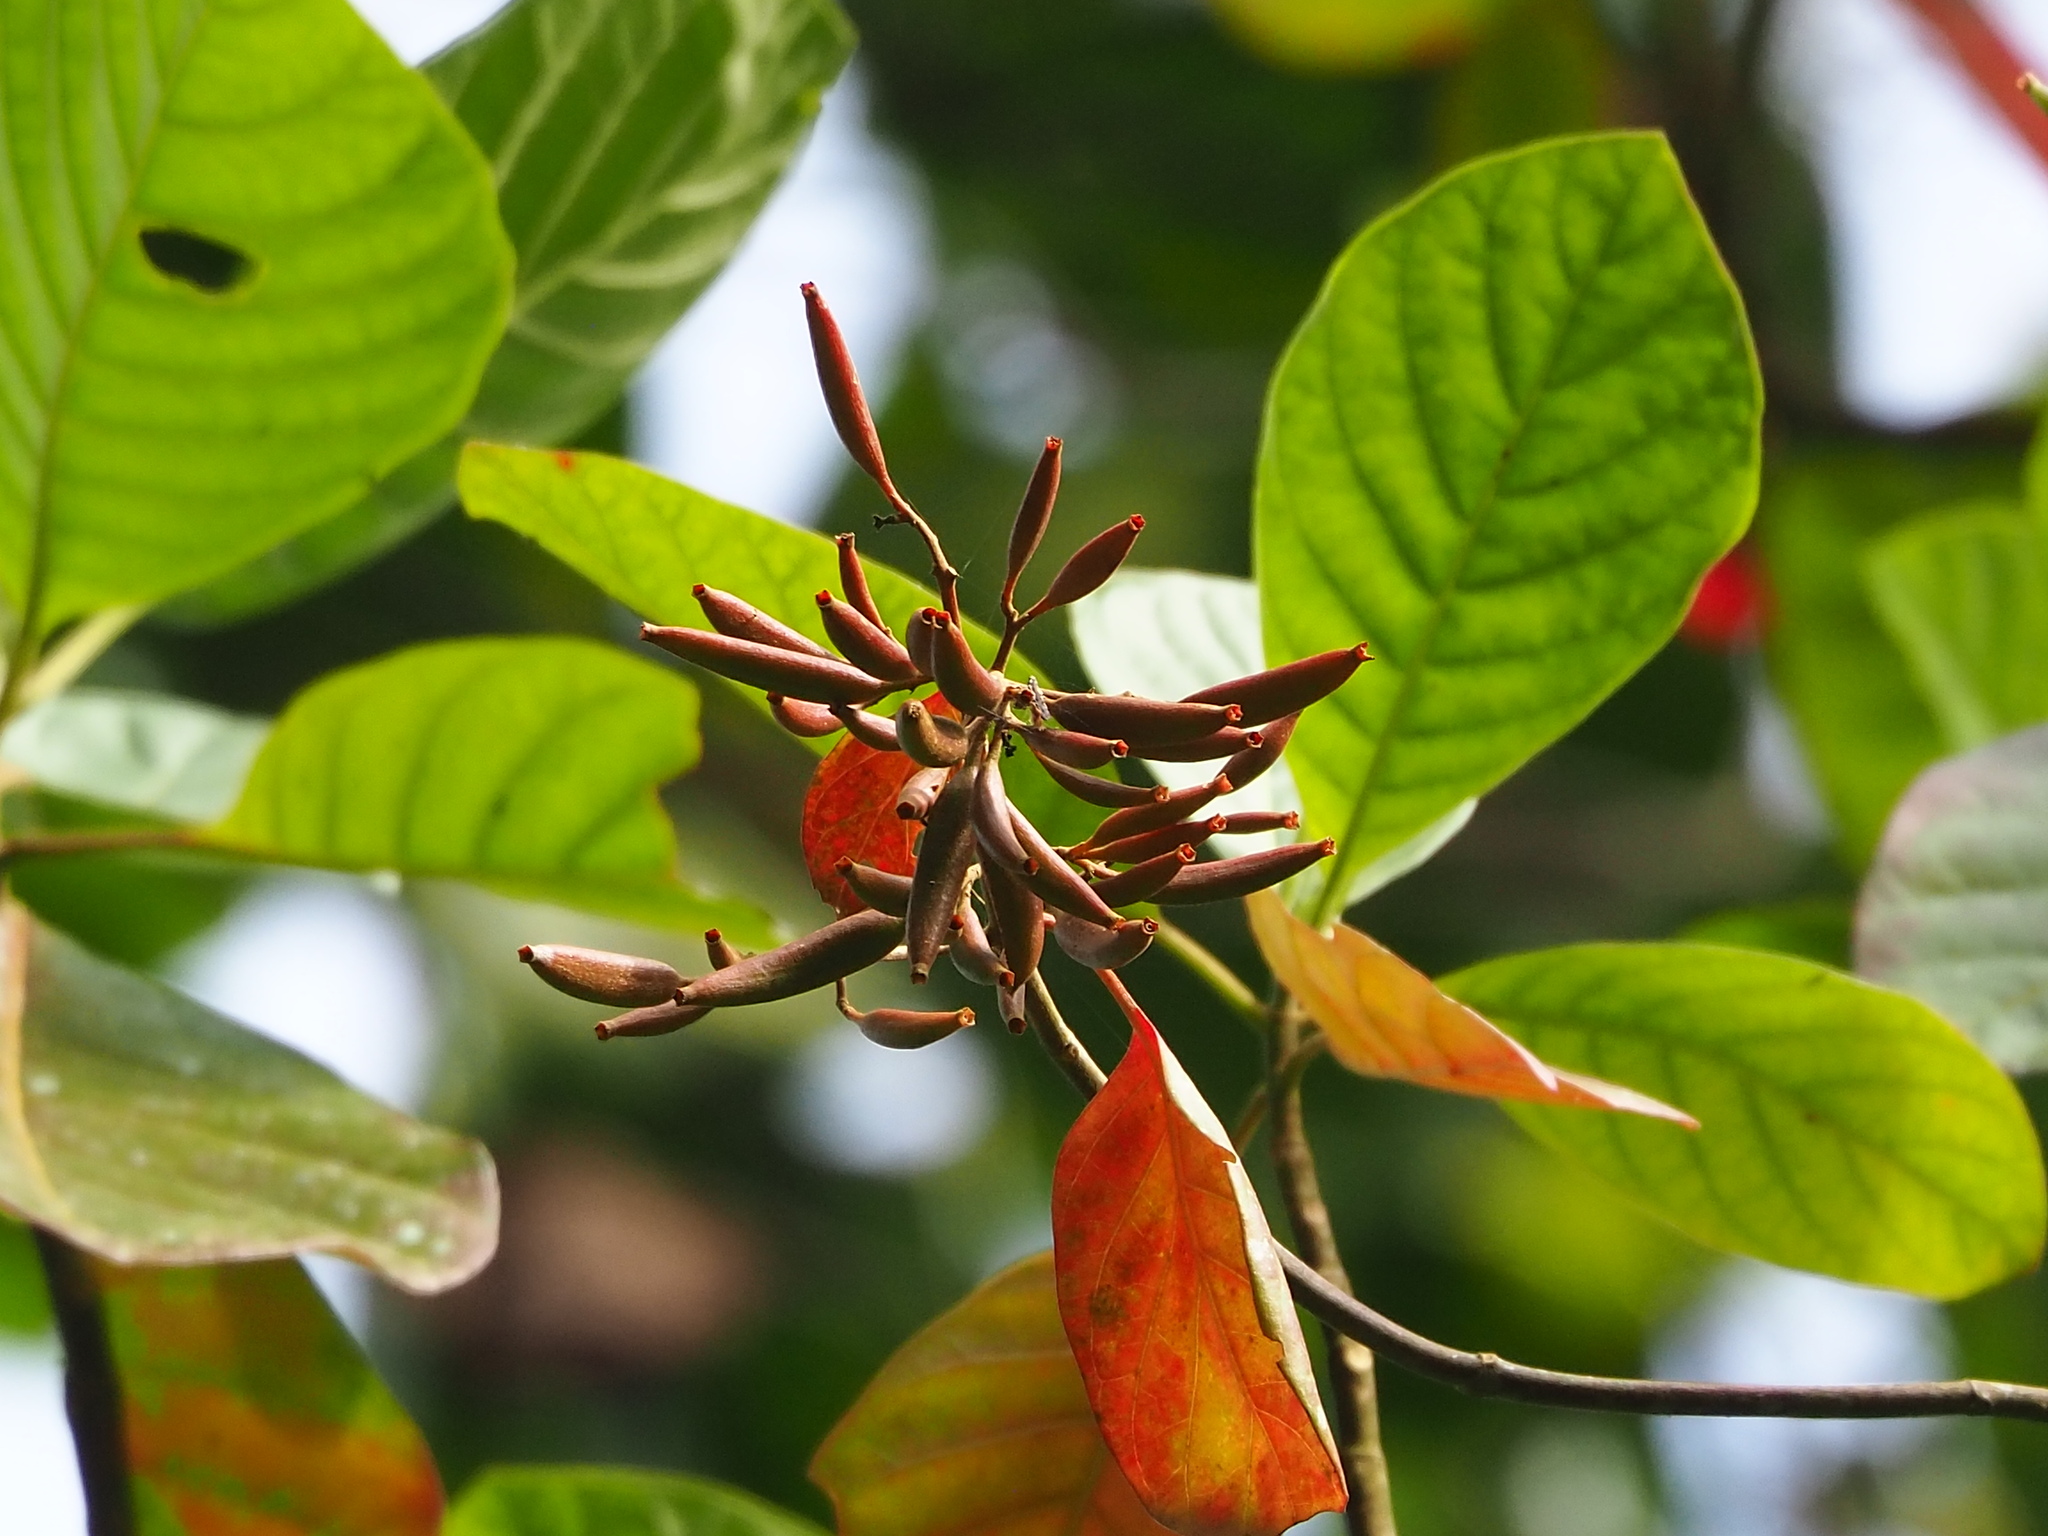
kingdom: Plantae
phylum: Tracheophyta
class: Magnoliopsida
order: Gentianales
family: Rubiaceae
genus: Cinchona
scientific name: Cinchona pubescens
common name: Quinine
